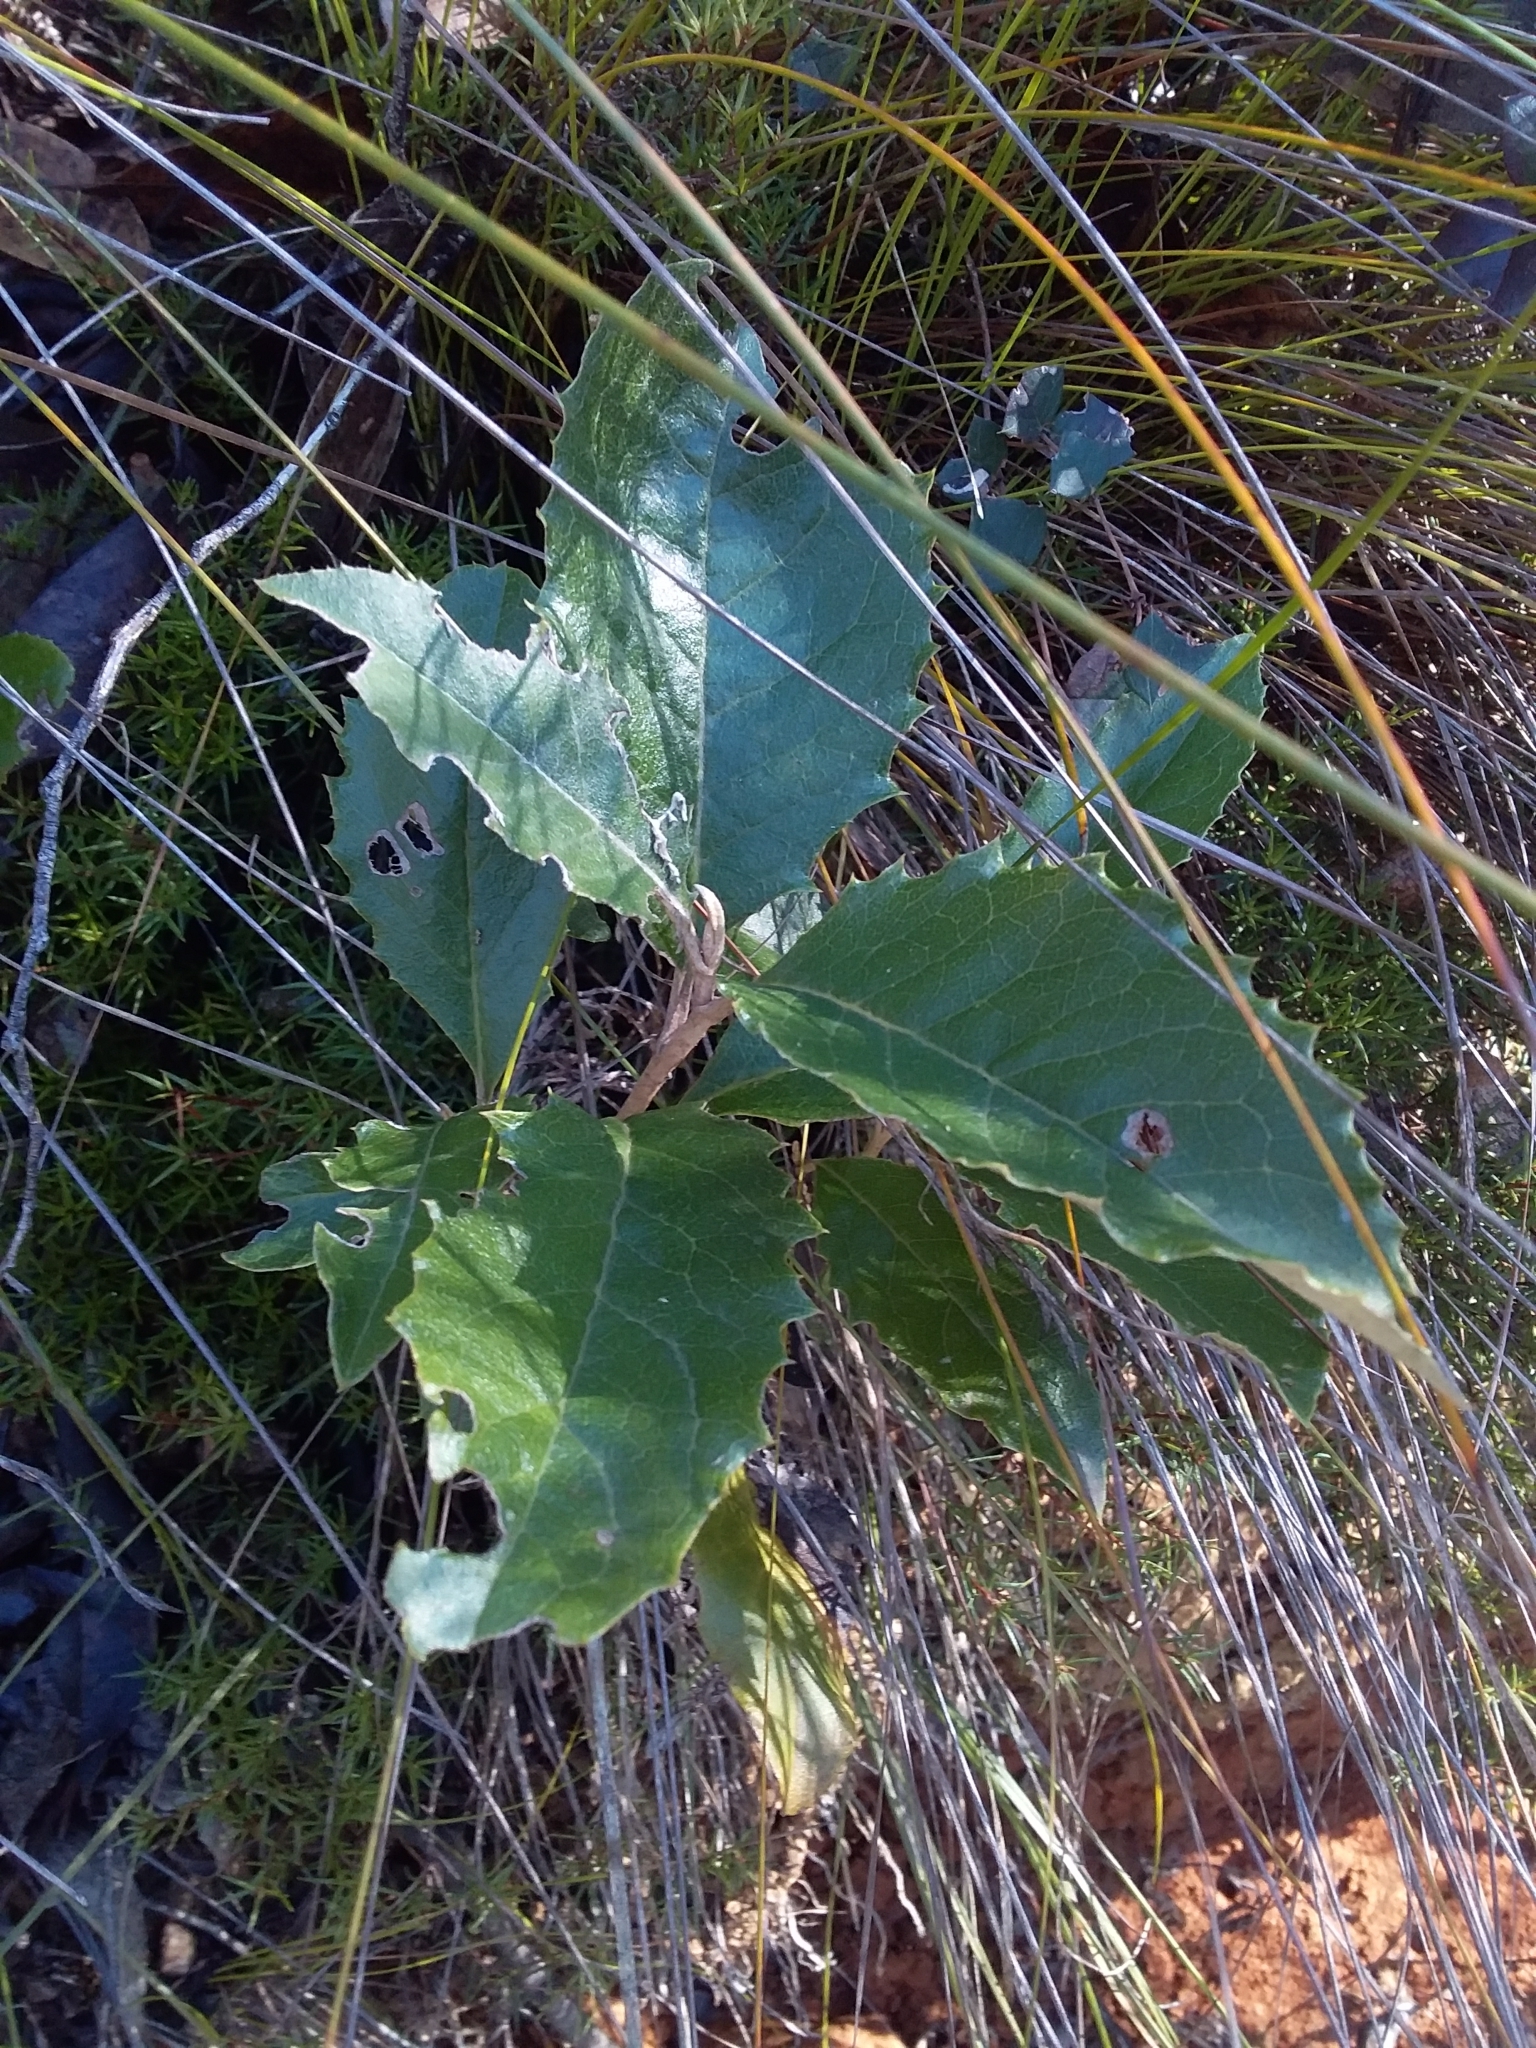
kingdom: Plantae
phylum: Tracheophyta
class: Magnoliopsida
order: Asterales
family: Asteraceae
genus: Olearia
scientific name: Olearia grandiflora
